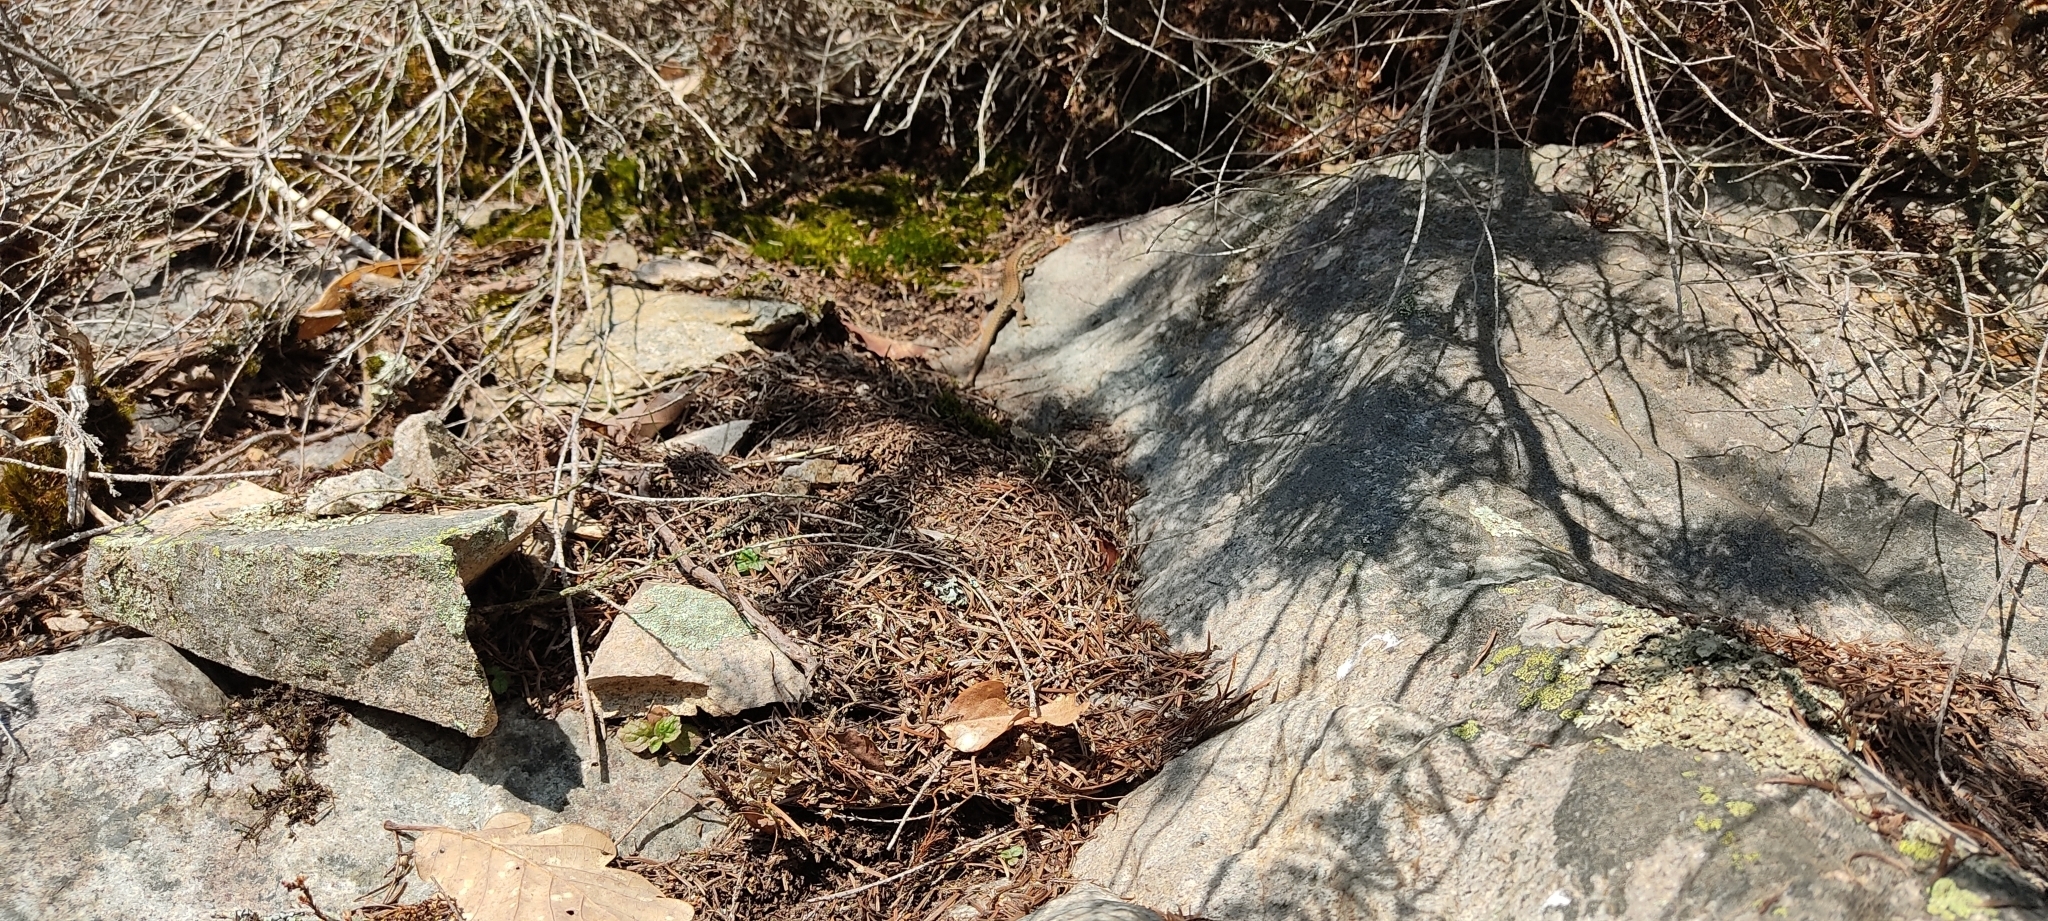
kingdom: Animalia
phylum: Chordata
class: Squamata
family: Lacertidae
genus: Podarcis
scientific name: Podarcis muralis
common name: Common wall lizard
